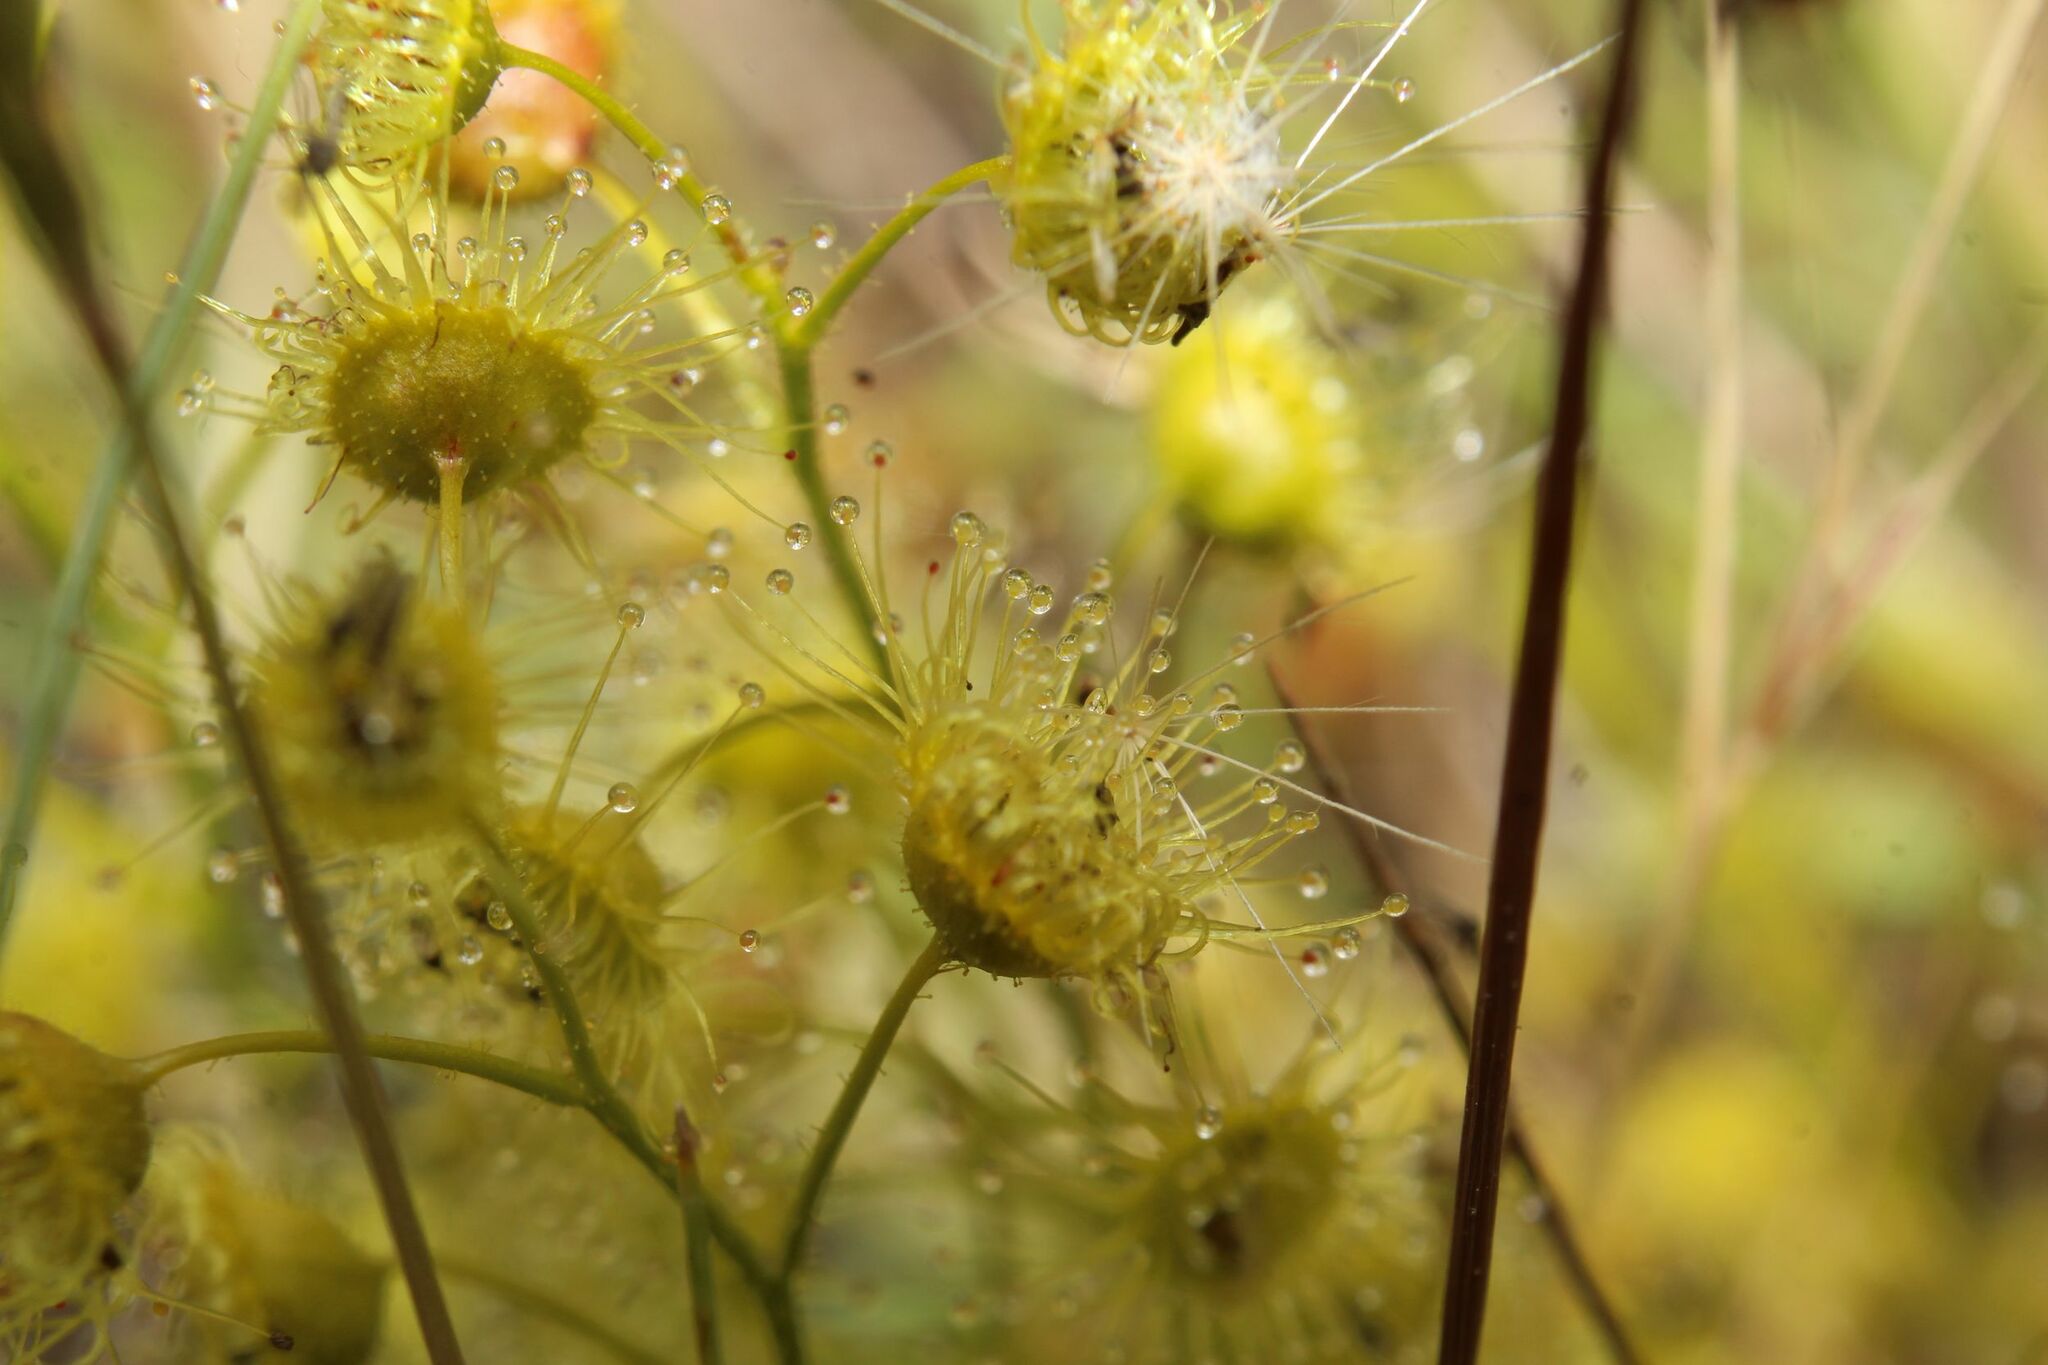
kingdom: Plantae
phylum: Tracheophyta
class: Magnoliopsida
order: Caryophyllales
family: Droseraceae
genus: Drosera
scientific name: Drosera stricticaulis
